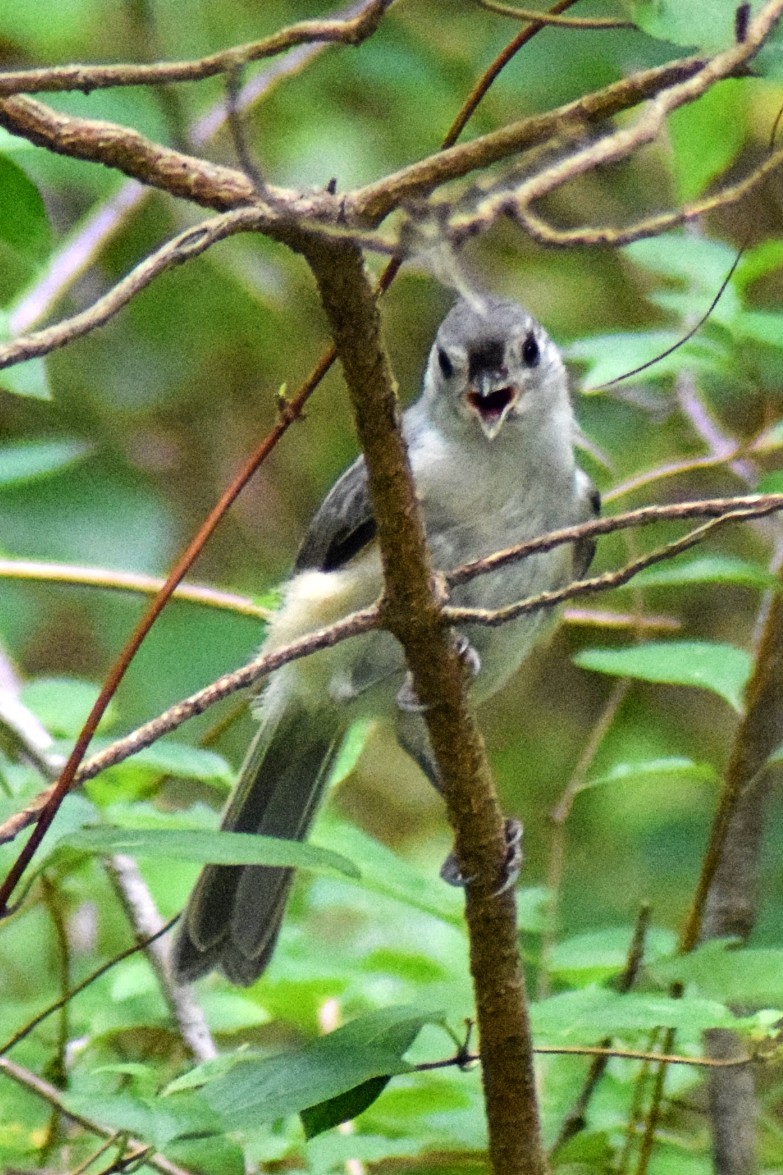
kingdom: Animalia
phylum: Chordata
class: Aves
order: Passeriformes
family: Paridae
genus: Baeolophus
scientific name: Baeolophus bicolor
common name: Tufted titmouse
